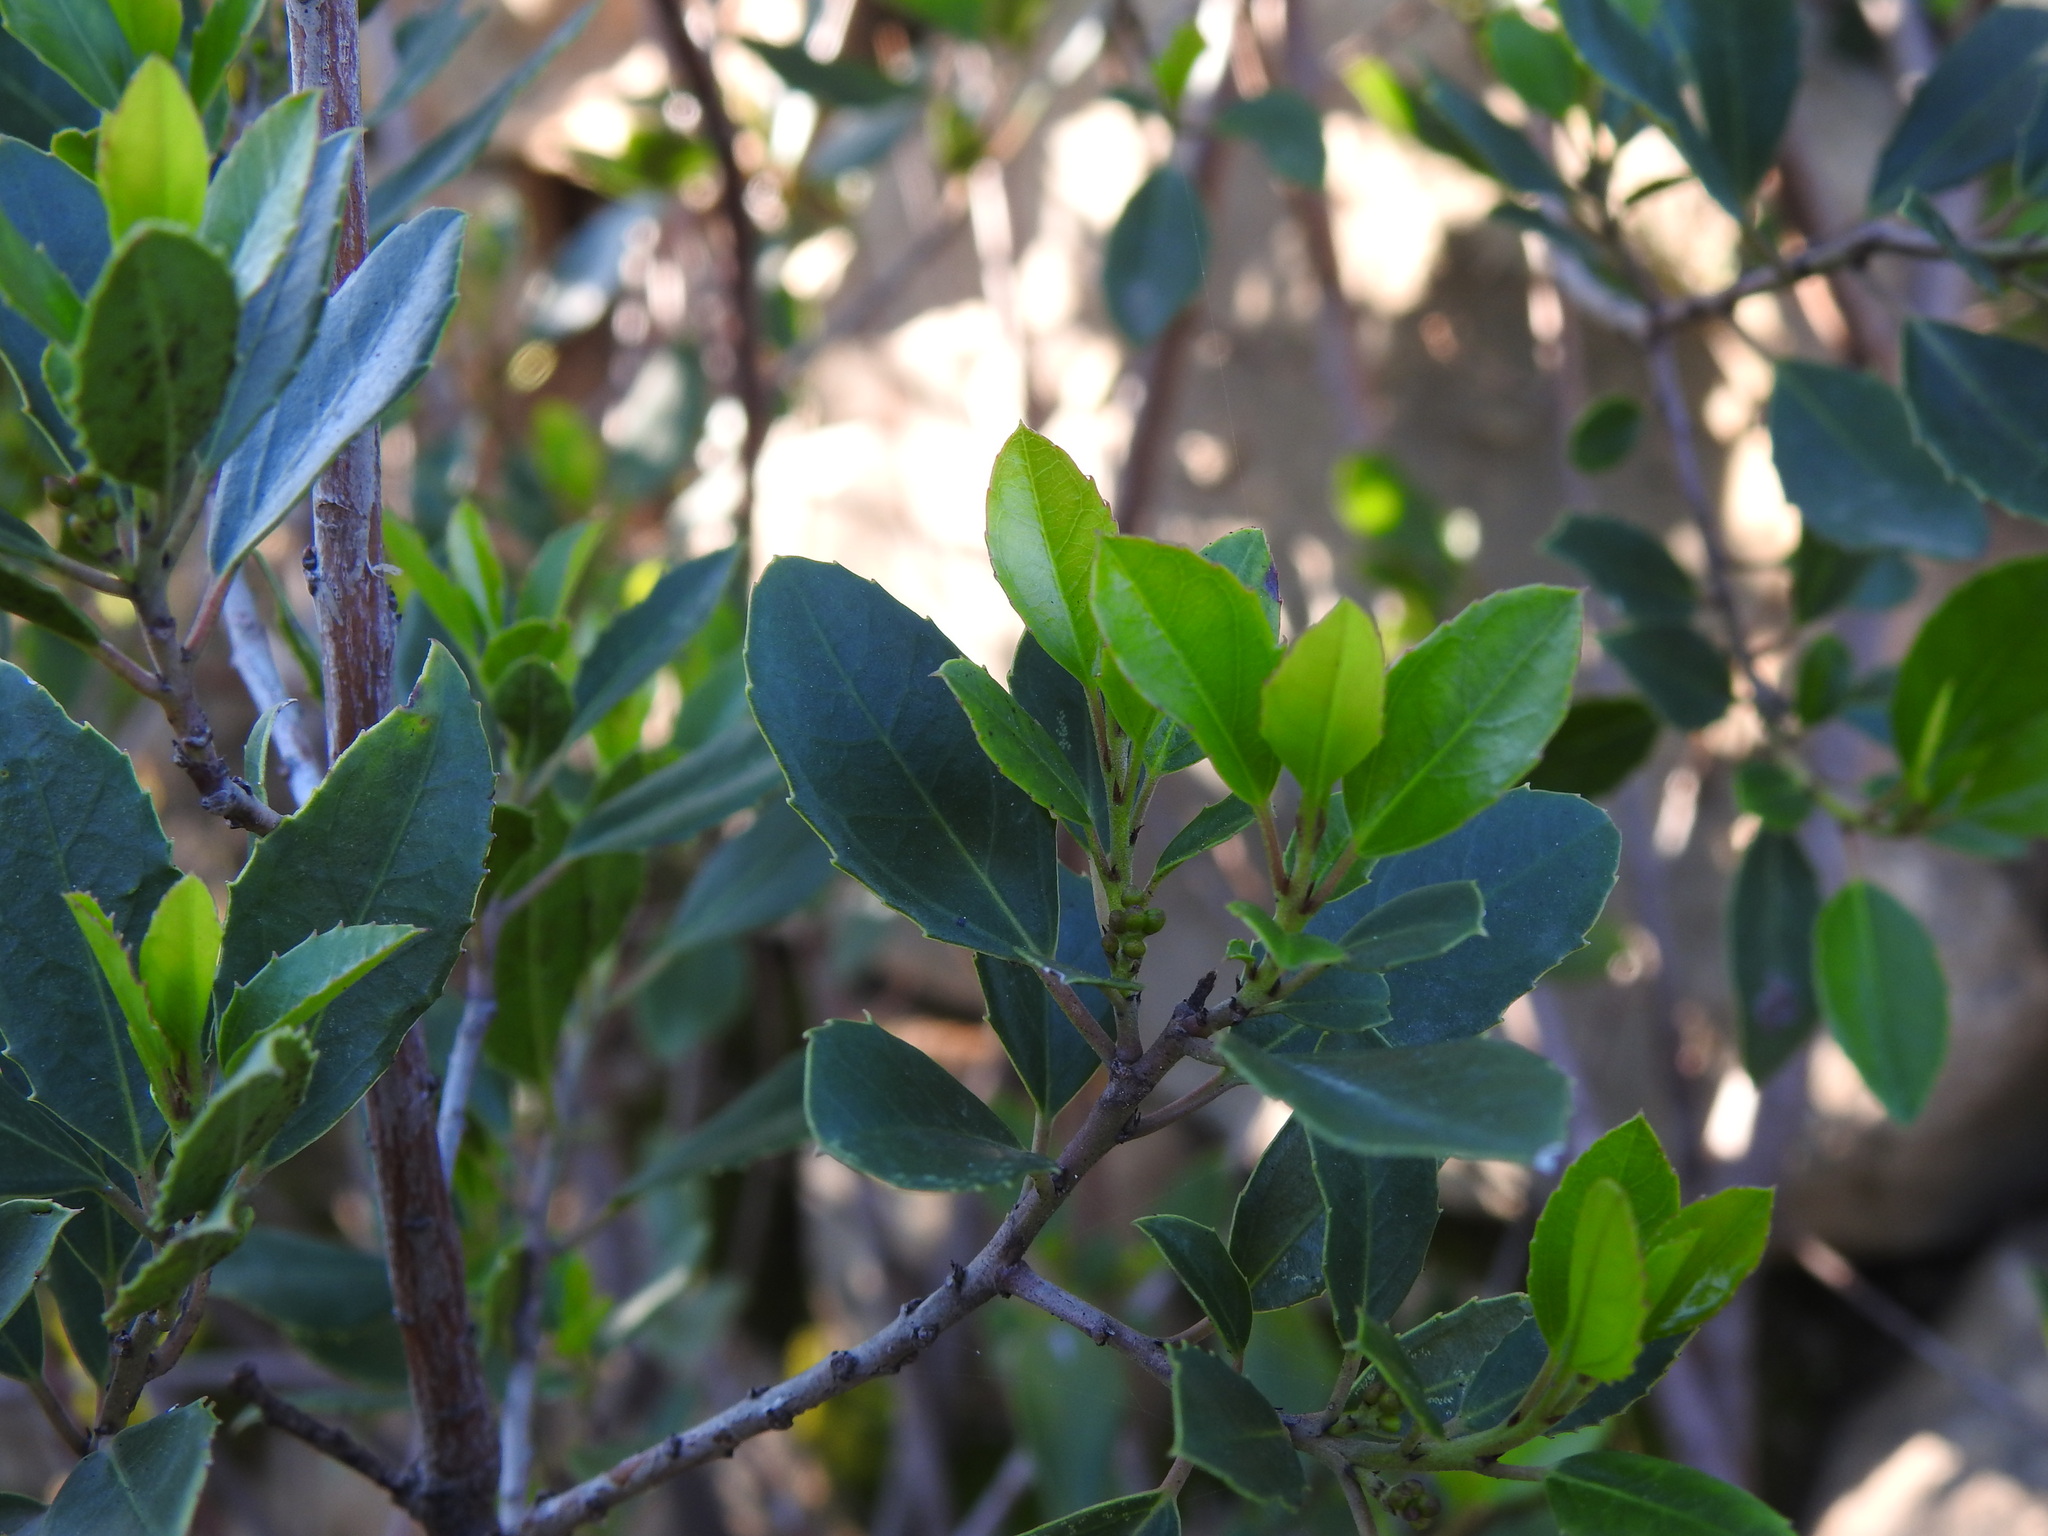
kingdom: Plantae
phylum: Tracheophyta
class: Magnoliopsida
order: Rosales
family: Rhamnaceae
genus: Rhamnus
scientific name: Rhamnus alaternus
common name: Mediterranean buckthorn
